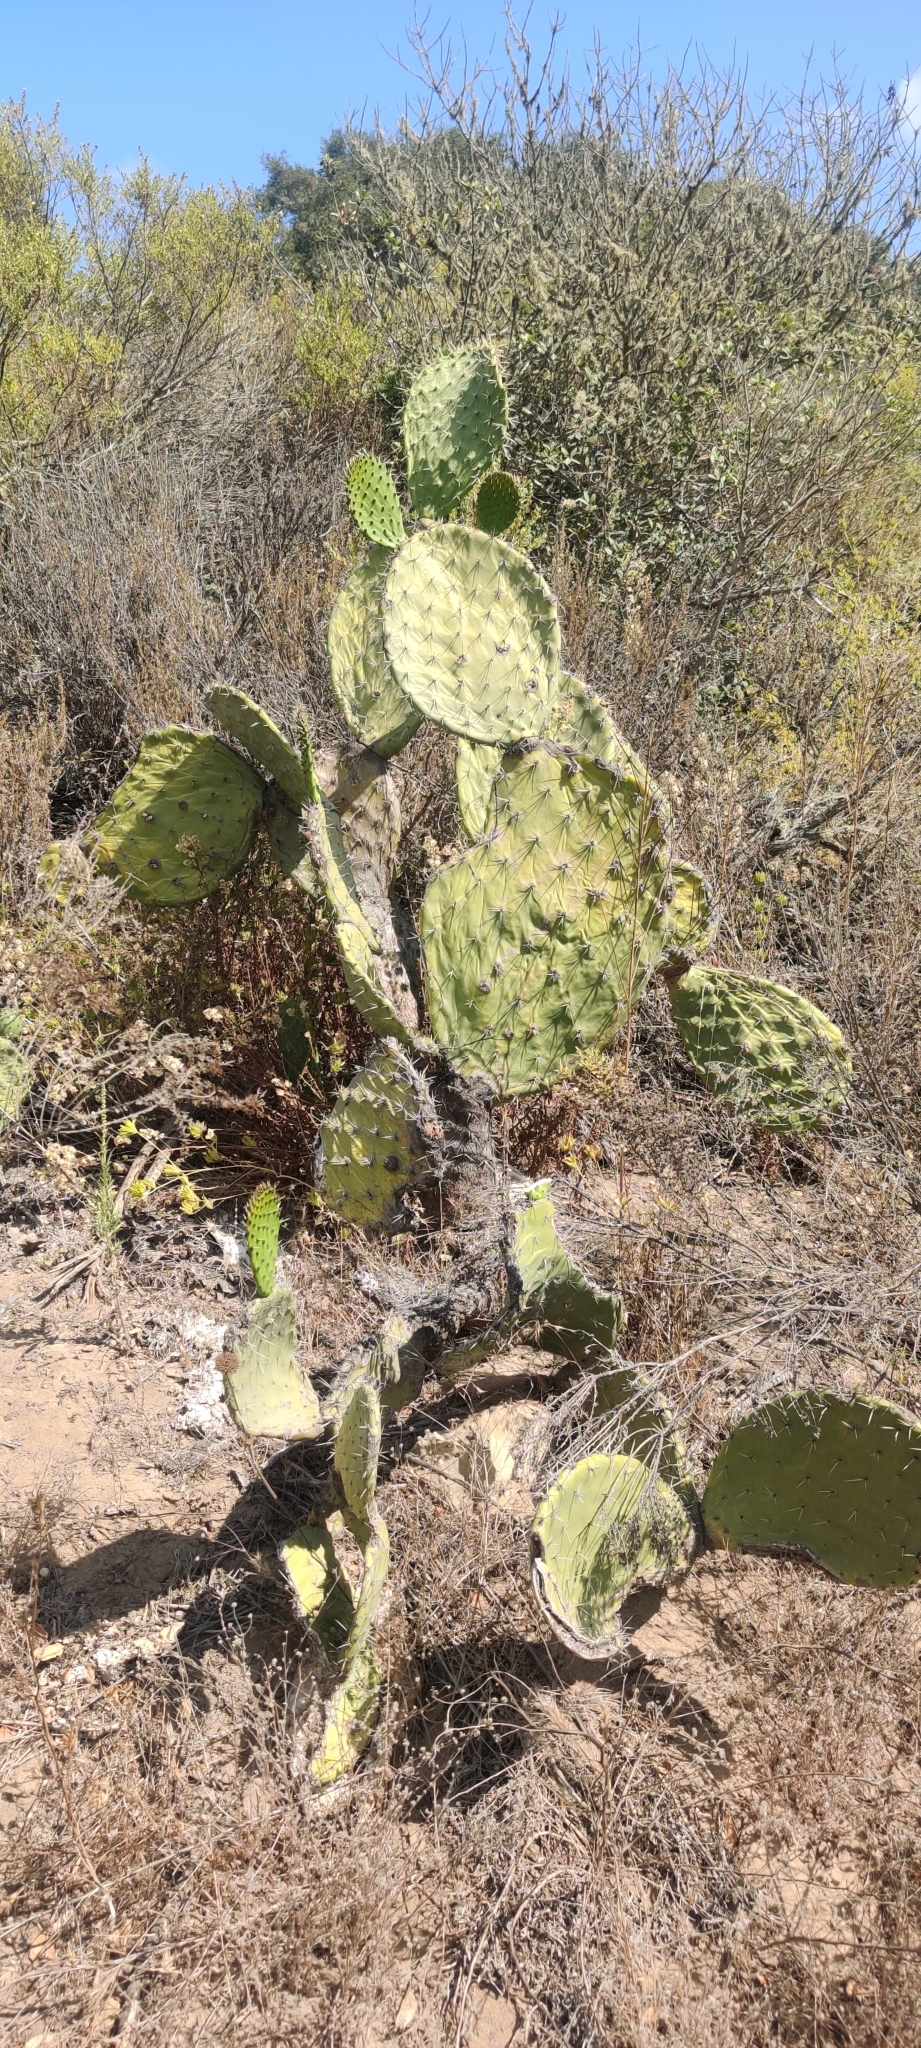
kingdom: Plantae
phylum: Tracheophyta
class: Magnoliopsida
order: Caryophyllales
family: Cactaceae
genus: Opuntia
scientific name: Opuntia ficus-indica
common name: Barbary fig
